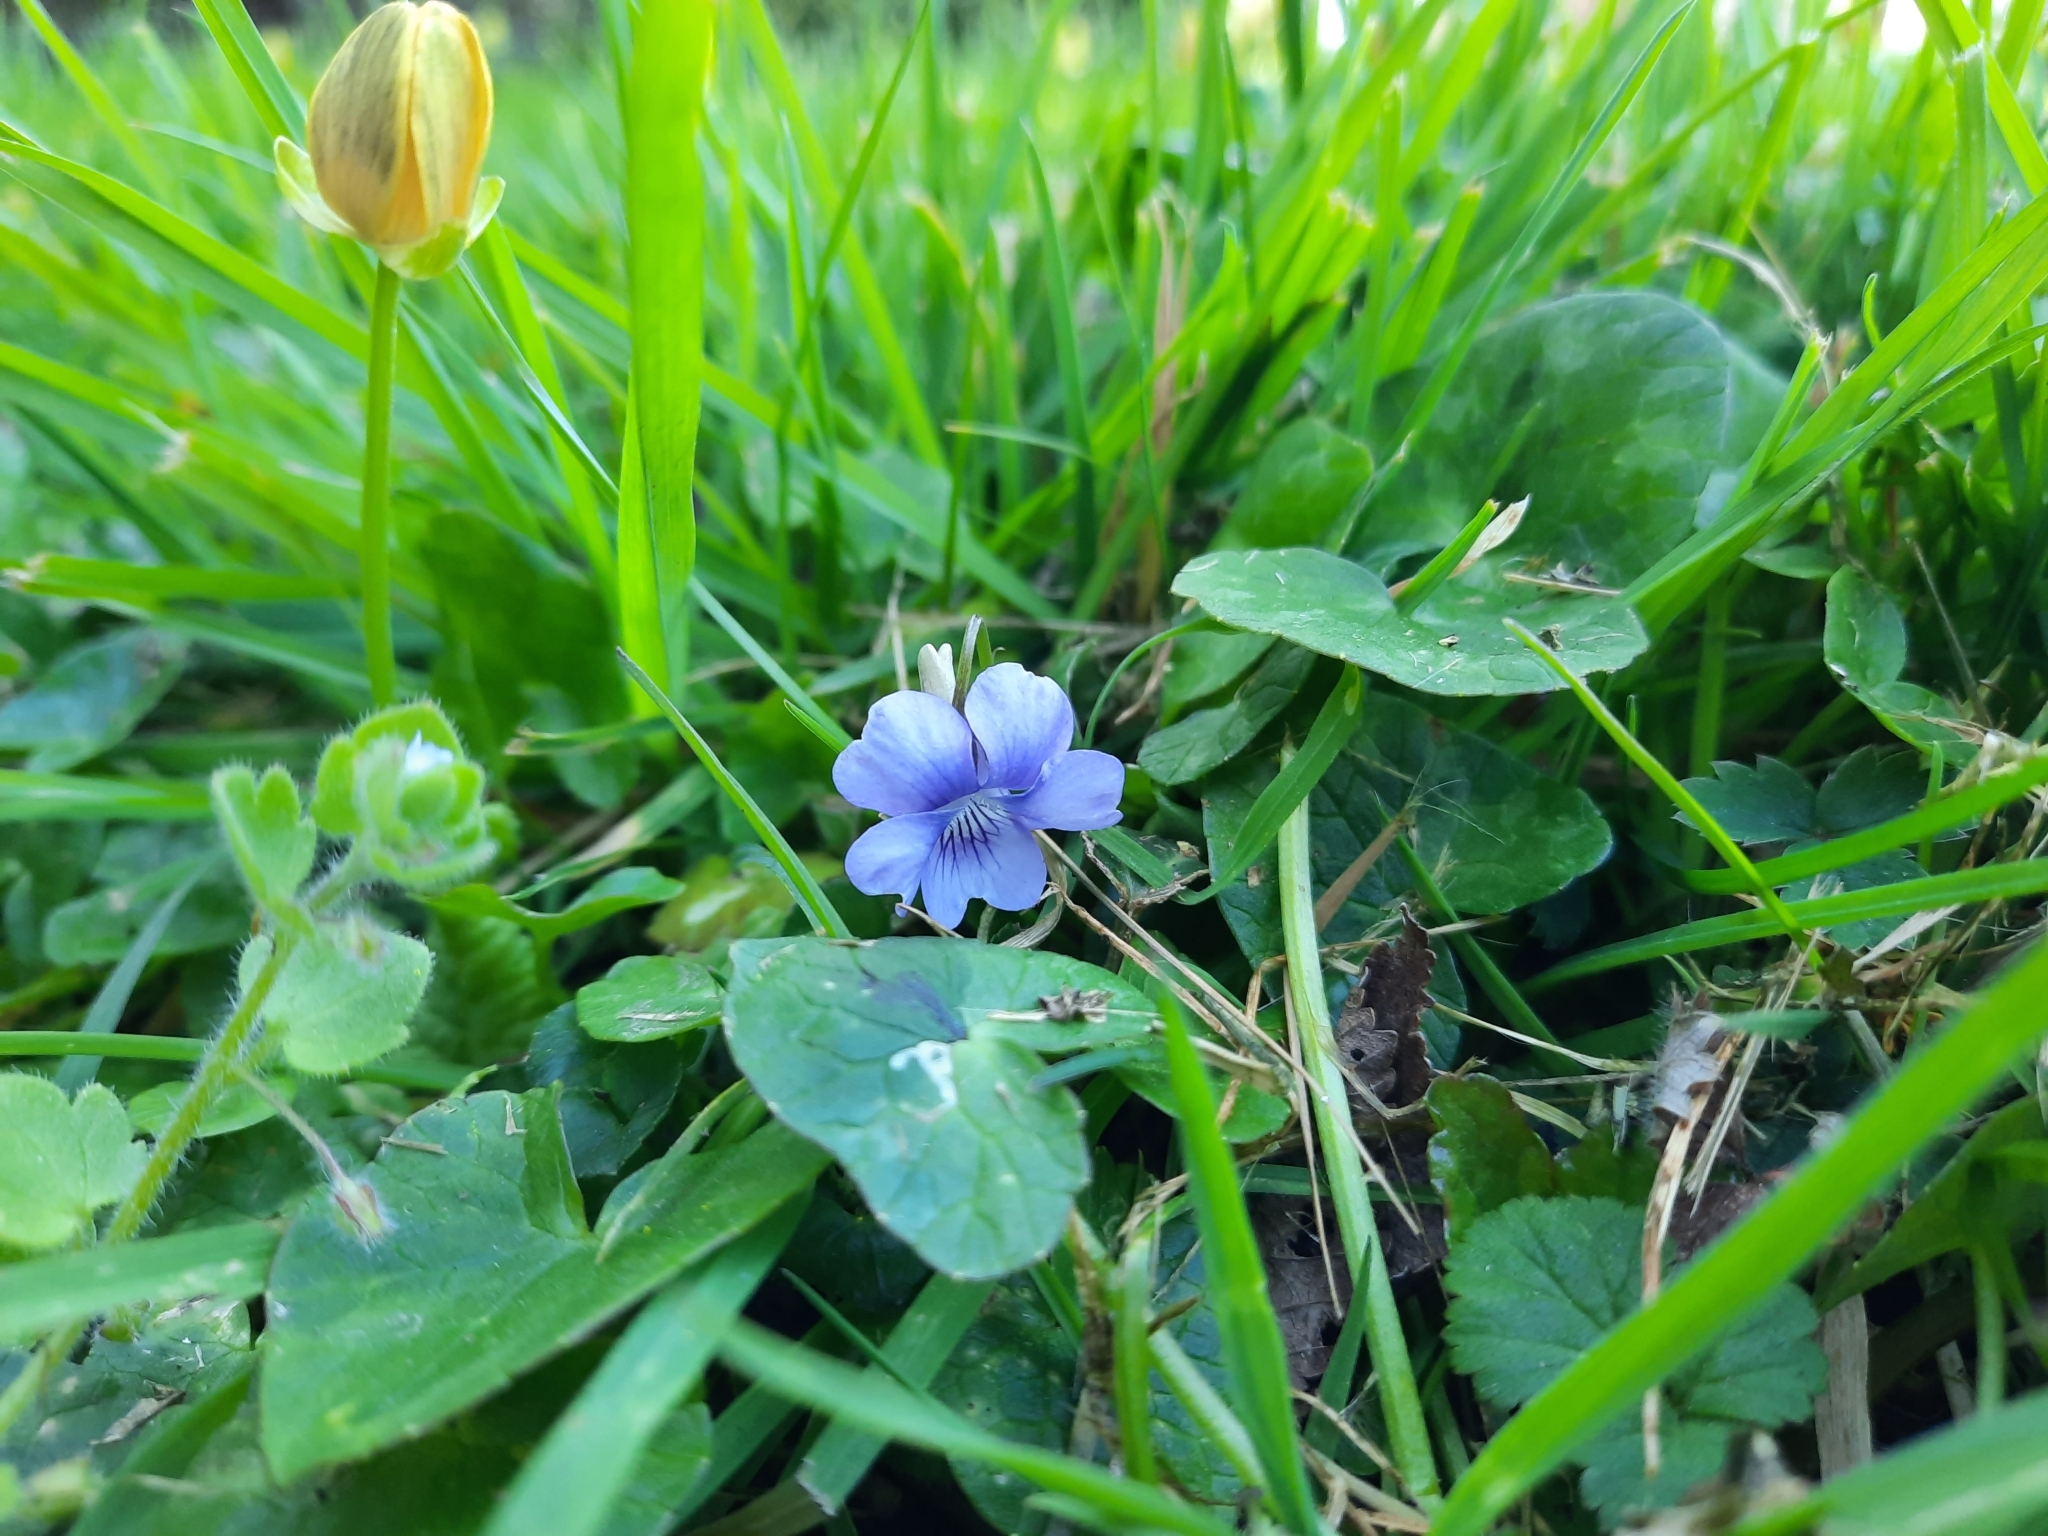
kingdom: Plantae
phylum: Tracheophyta
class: Magnoliopsida
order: Malpighiales
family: Violaceae
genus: Viola
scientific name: Viola riviniana
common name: Common dog-violet
